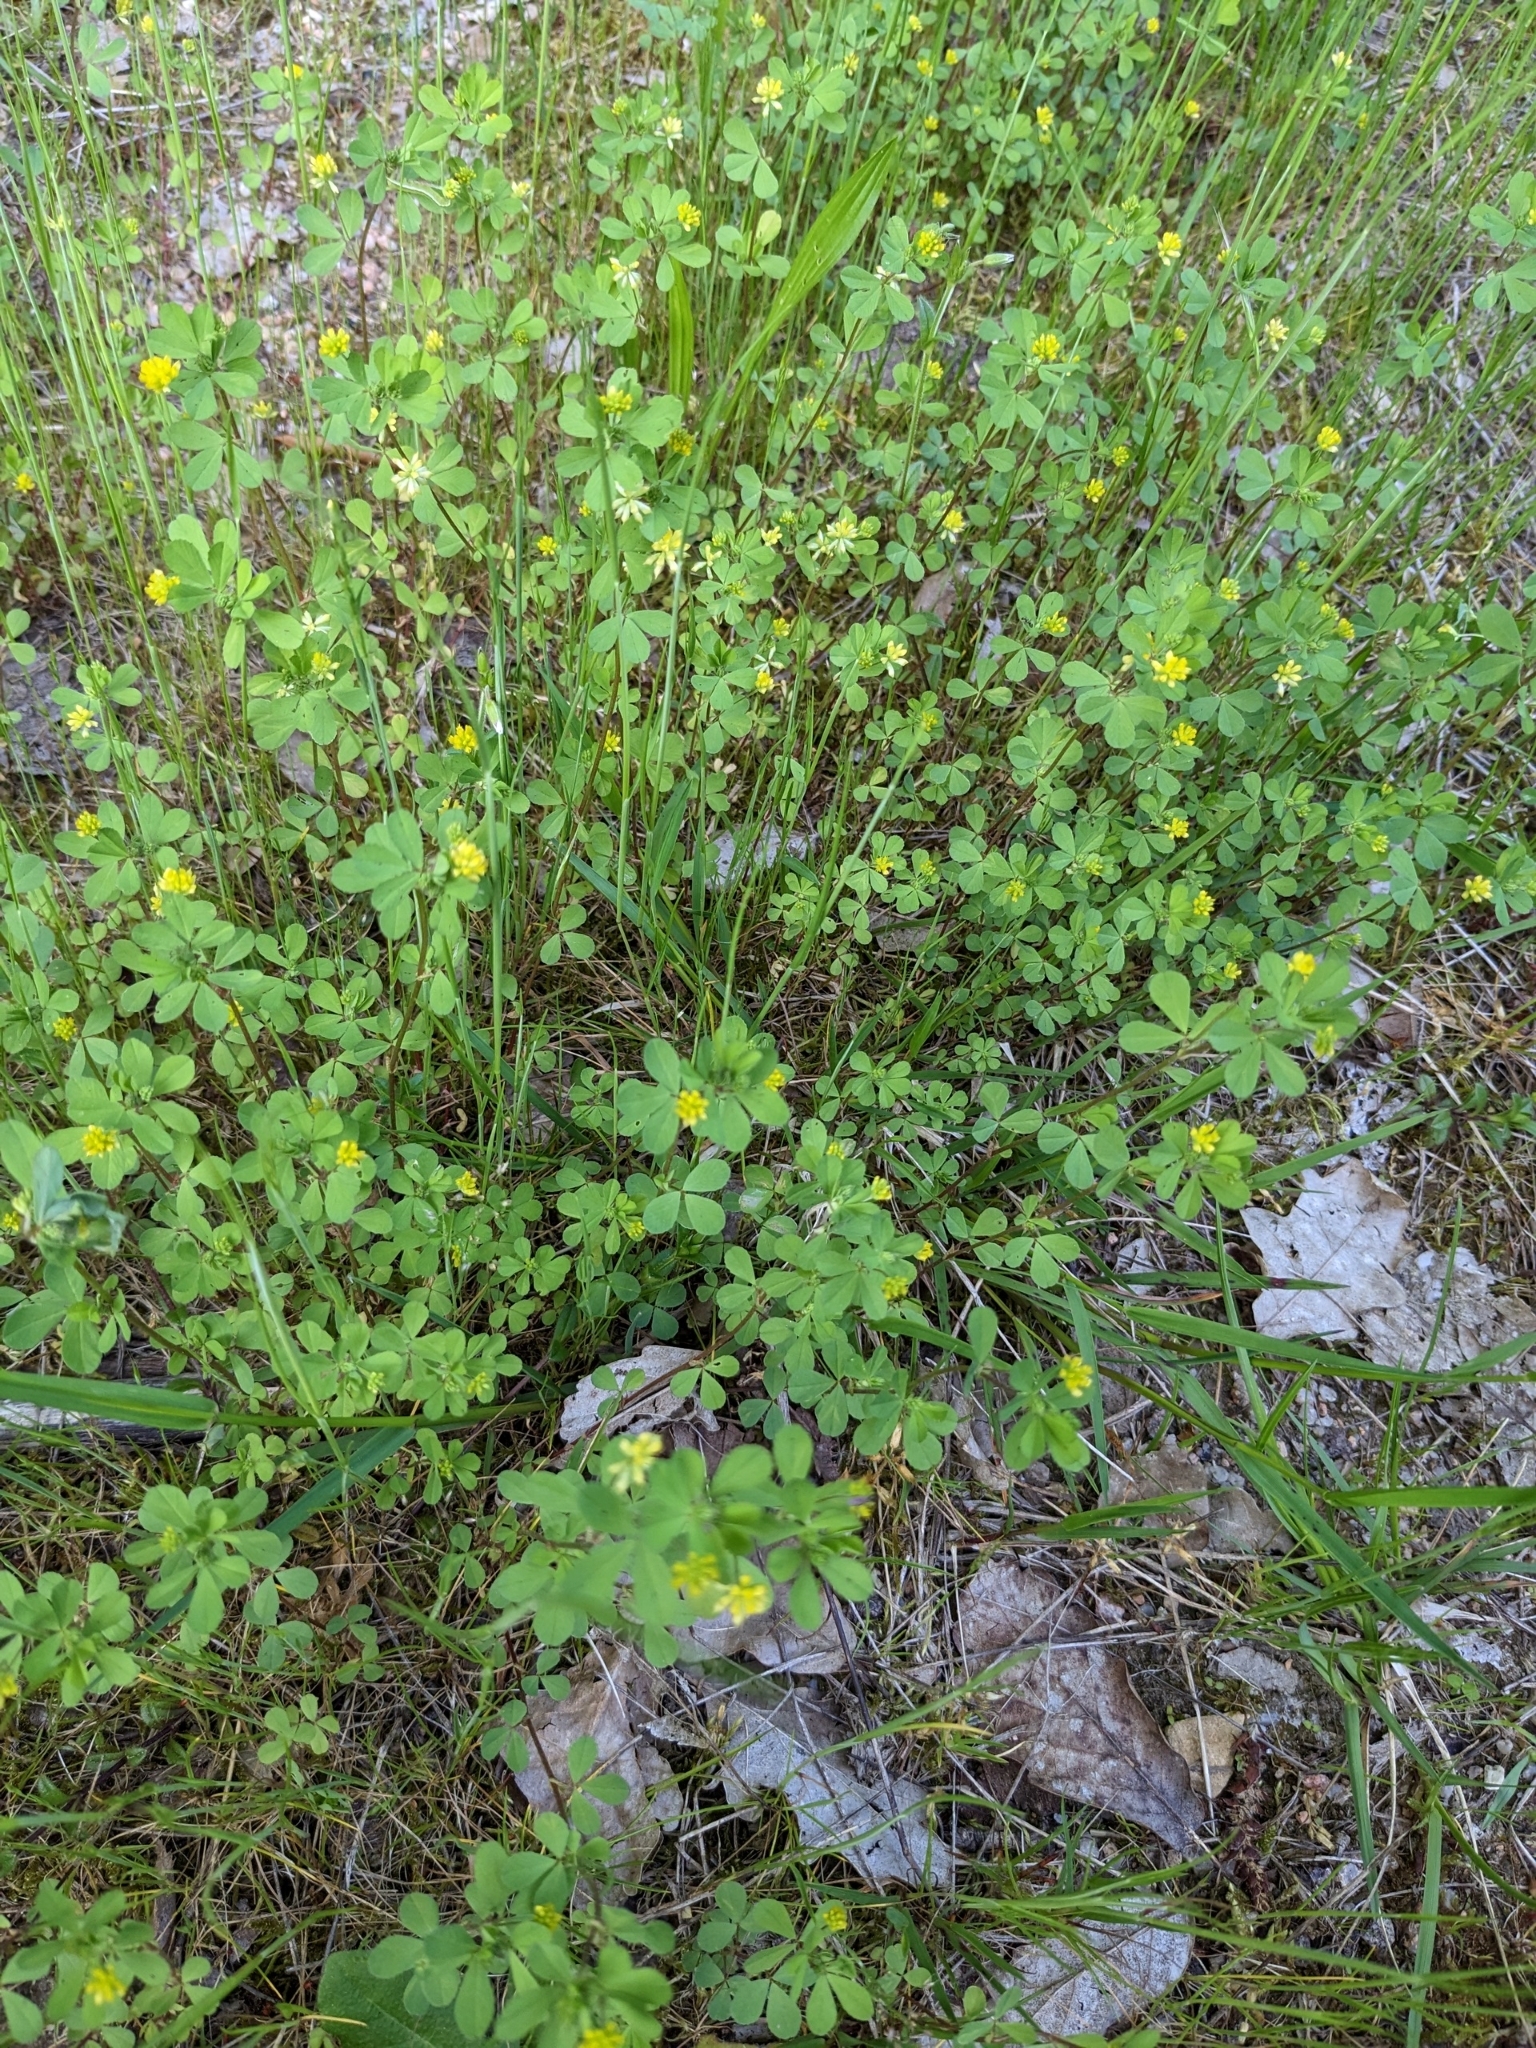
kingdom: Plantae
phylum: Tracheophyta
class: Magnoliopsida
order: Fabales
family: Fabaceae
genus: Trifolium
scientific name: Trifolium dubium
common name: Suckling clover
